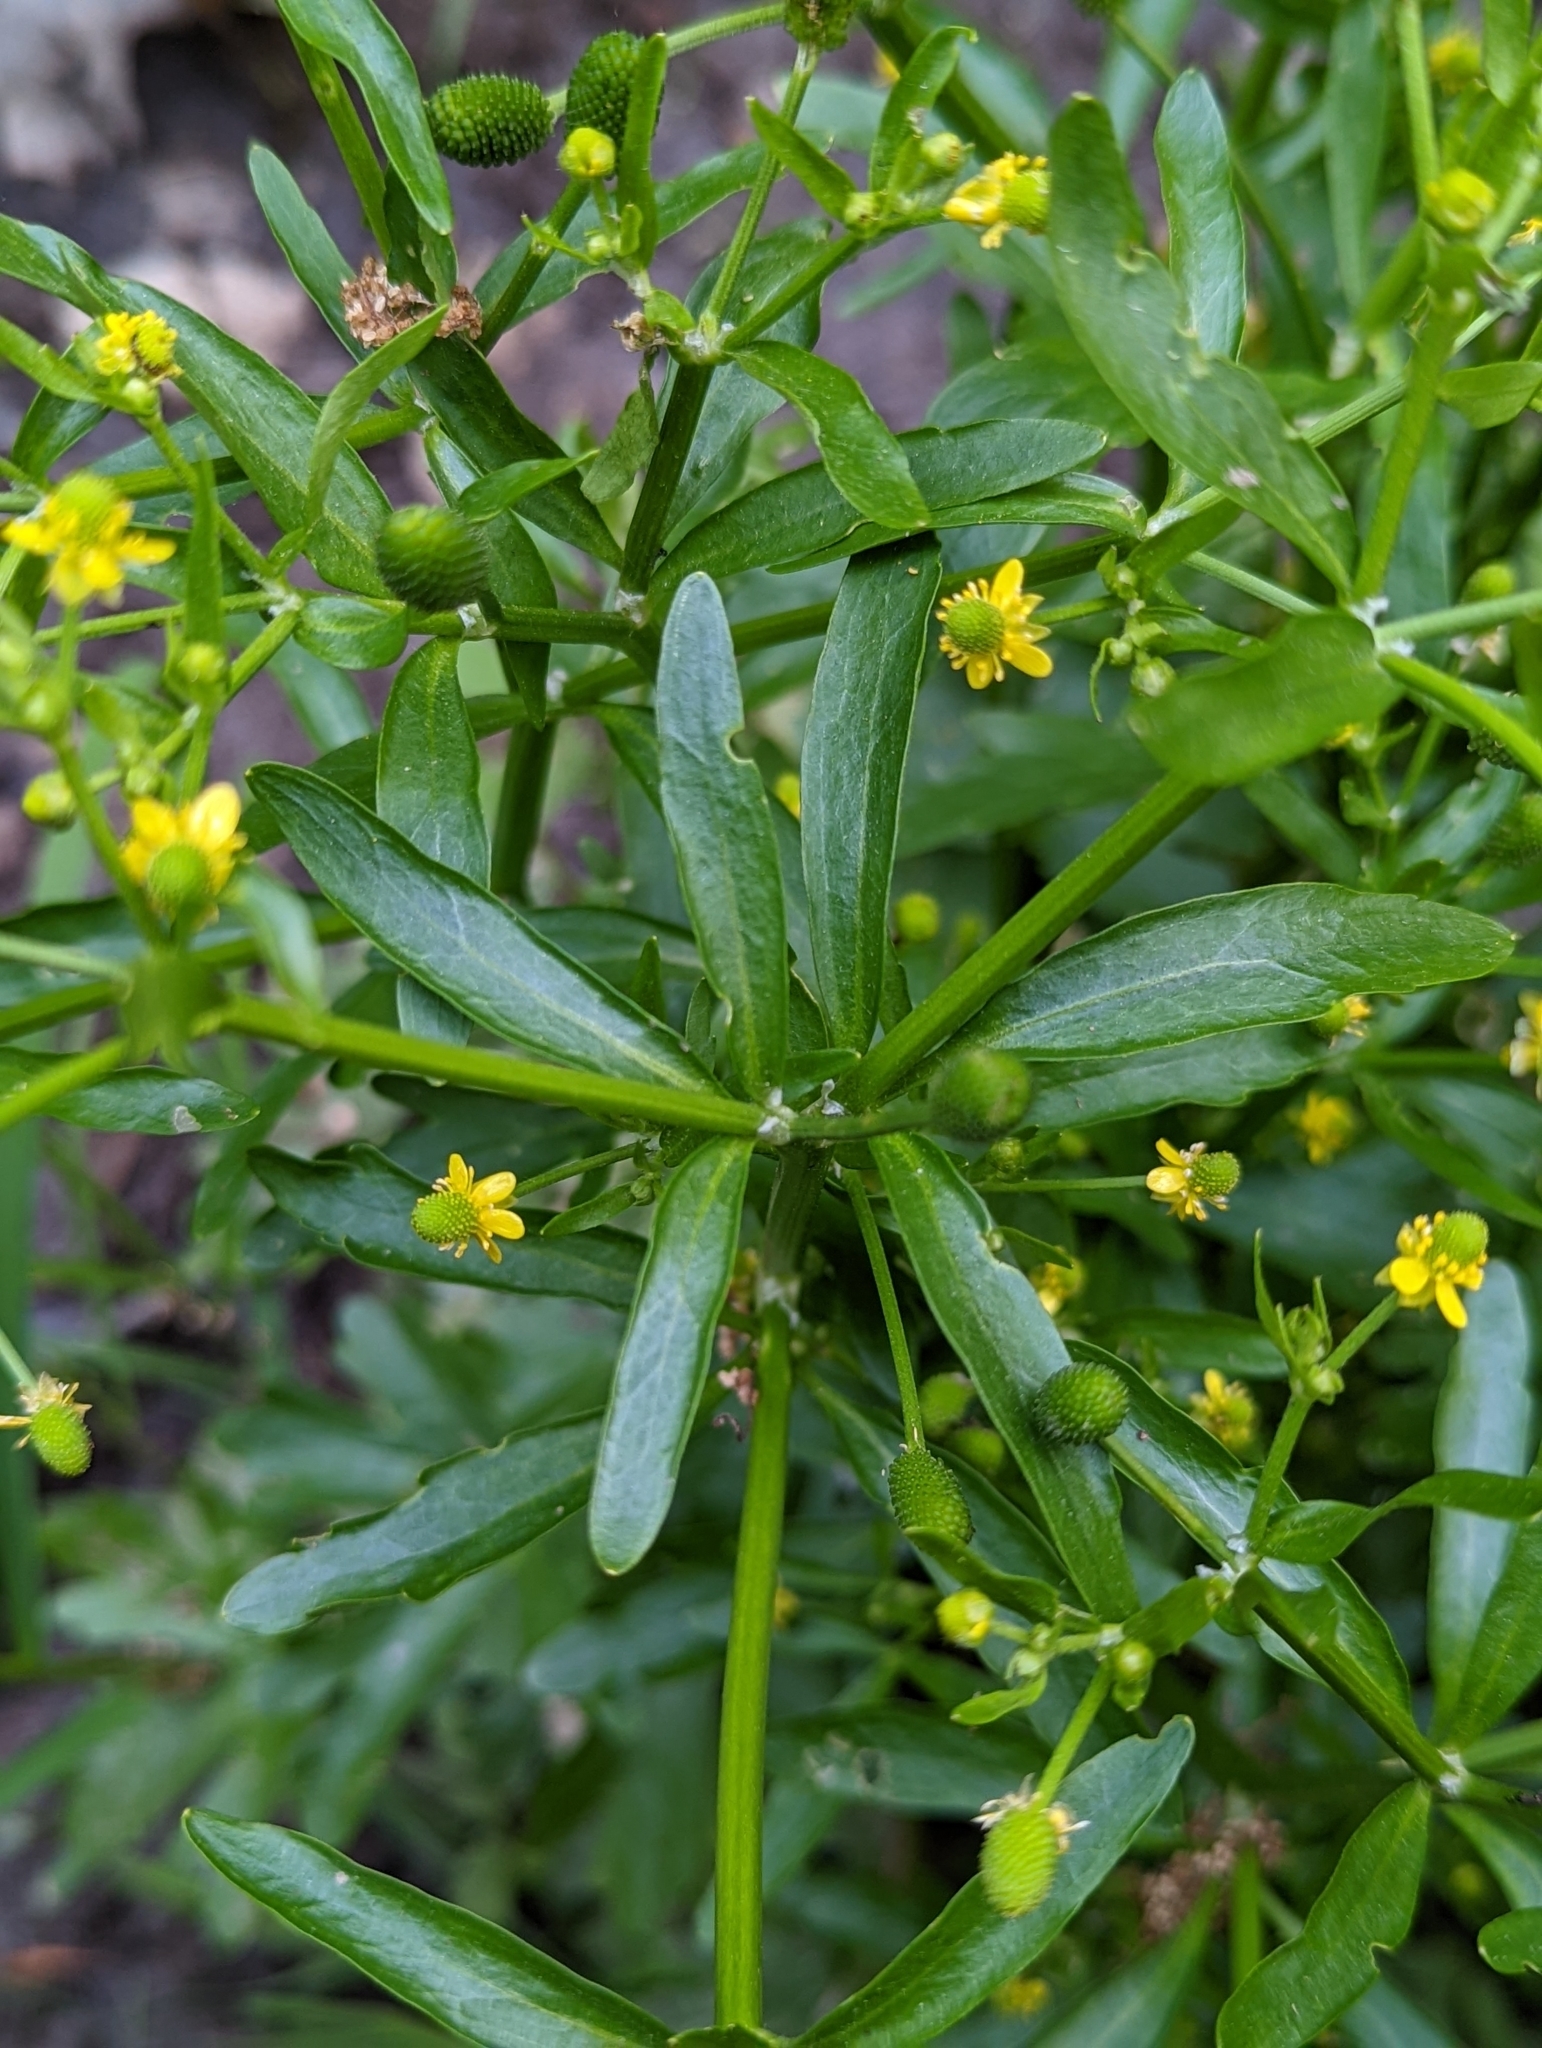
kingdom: Plantae
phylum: Tracheophyta
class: Magnoliopsida
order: Ranunculales
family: Ranunculaceae
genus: Ranunculus
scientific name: Ranunculus sceleratus
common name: Celery-leaved buttercup
